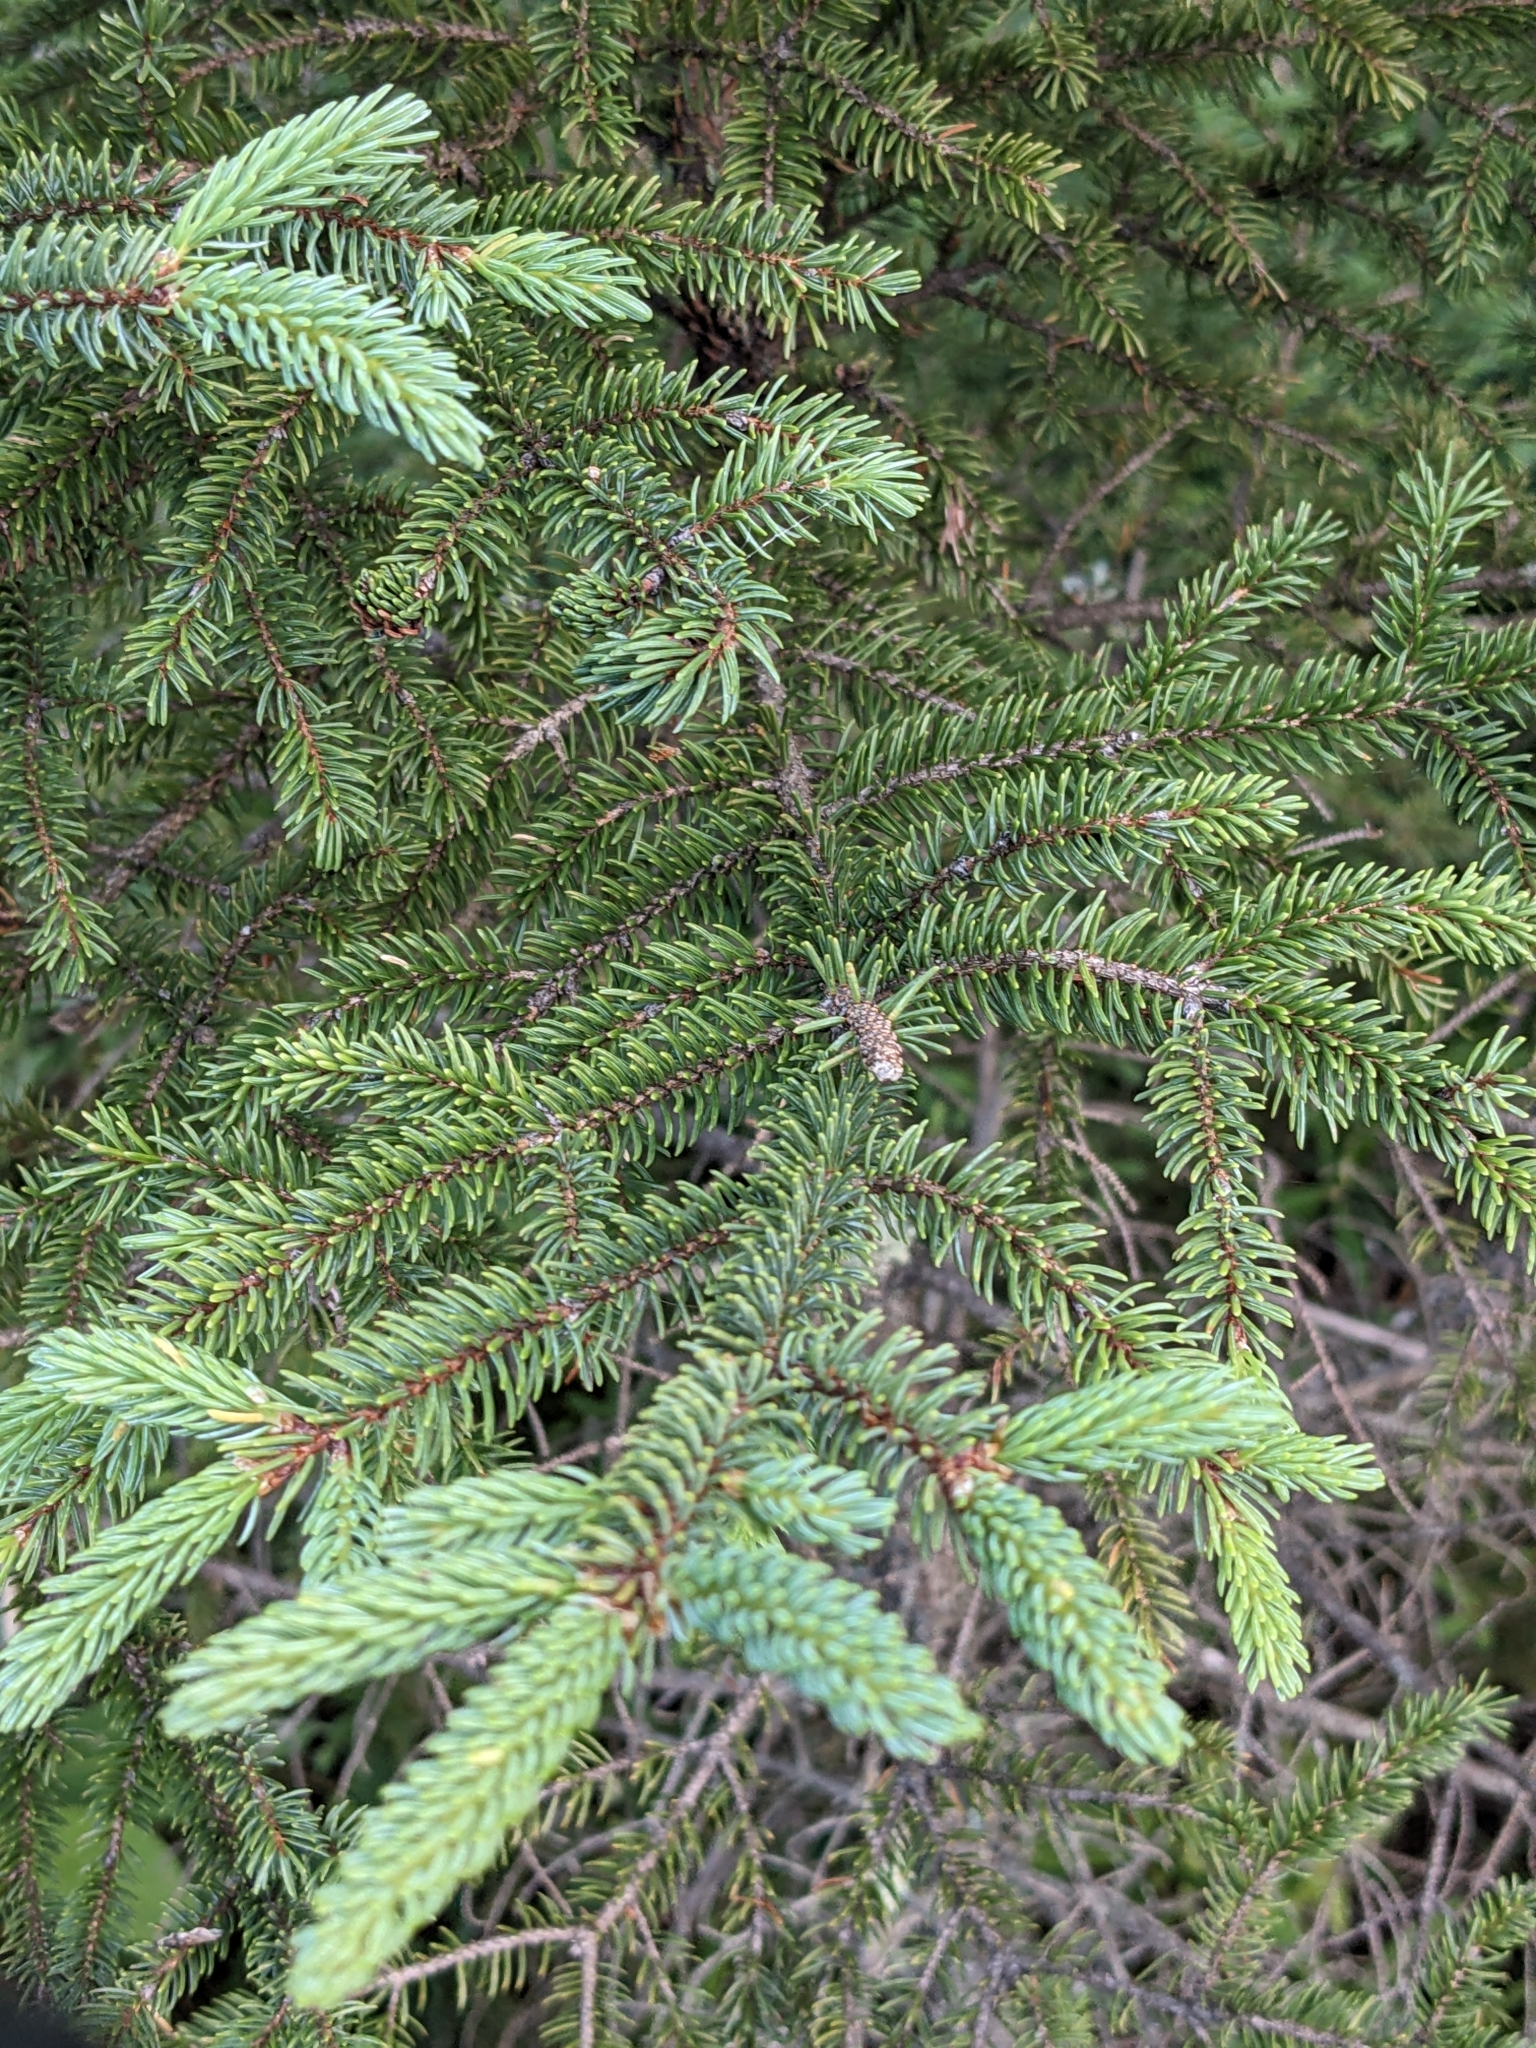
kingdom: Plantae
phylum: Tracheophyta
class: Pinopsida
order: Pinales
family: Pinaceae
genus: Picea
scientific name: Picea mariana
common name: Black spruce
